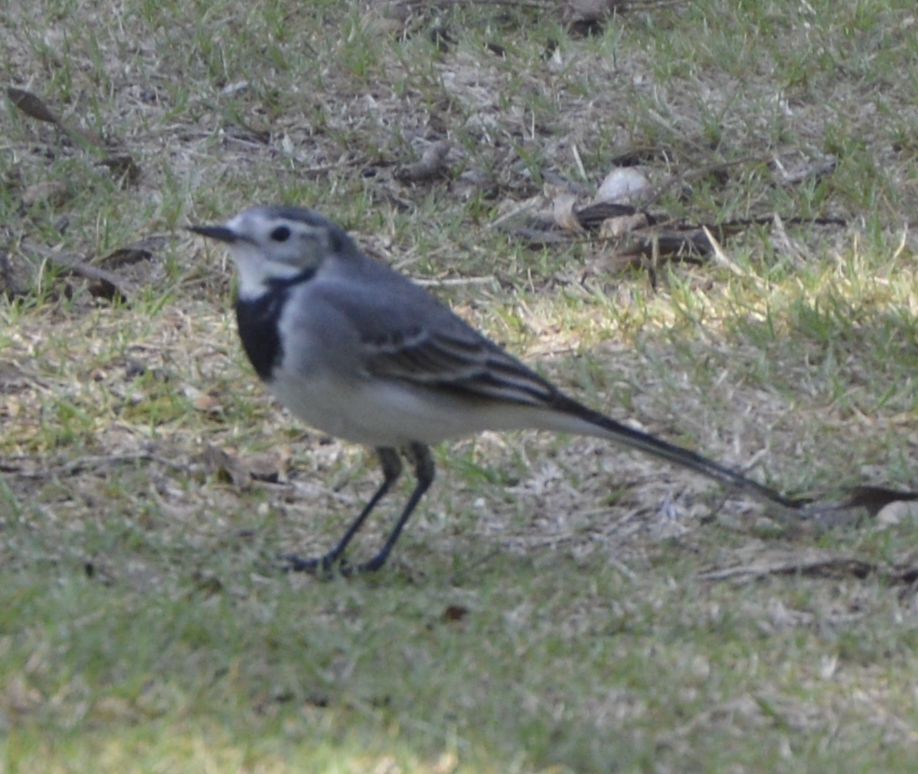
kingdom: Animalia
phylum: Chordata
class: Aves
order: Passeriformes
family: Motacillidae
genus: Motacilla
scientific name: Motacilla alba
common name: White wagtail
